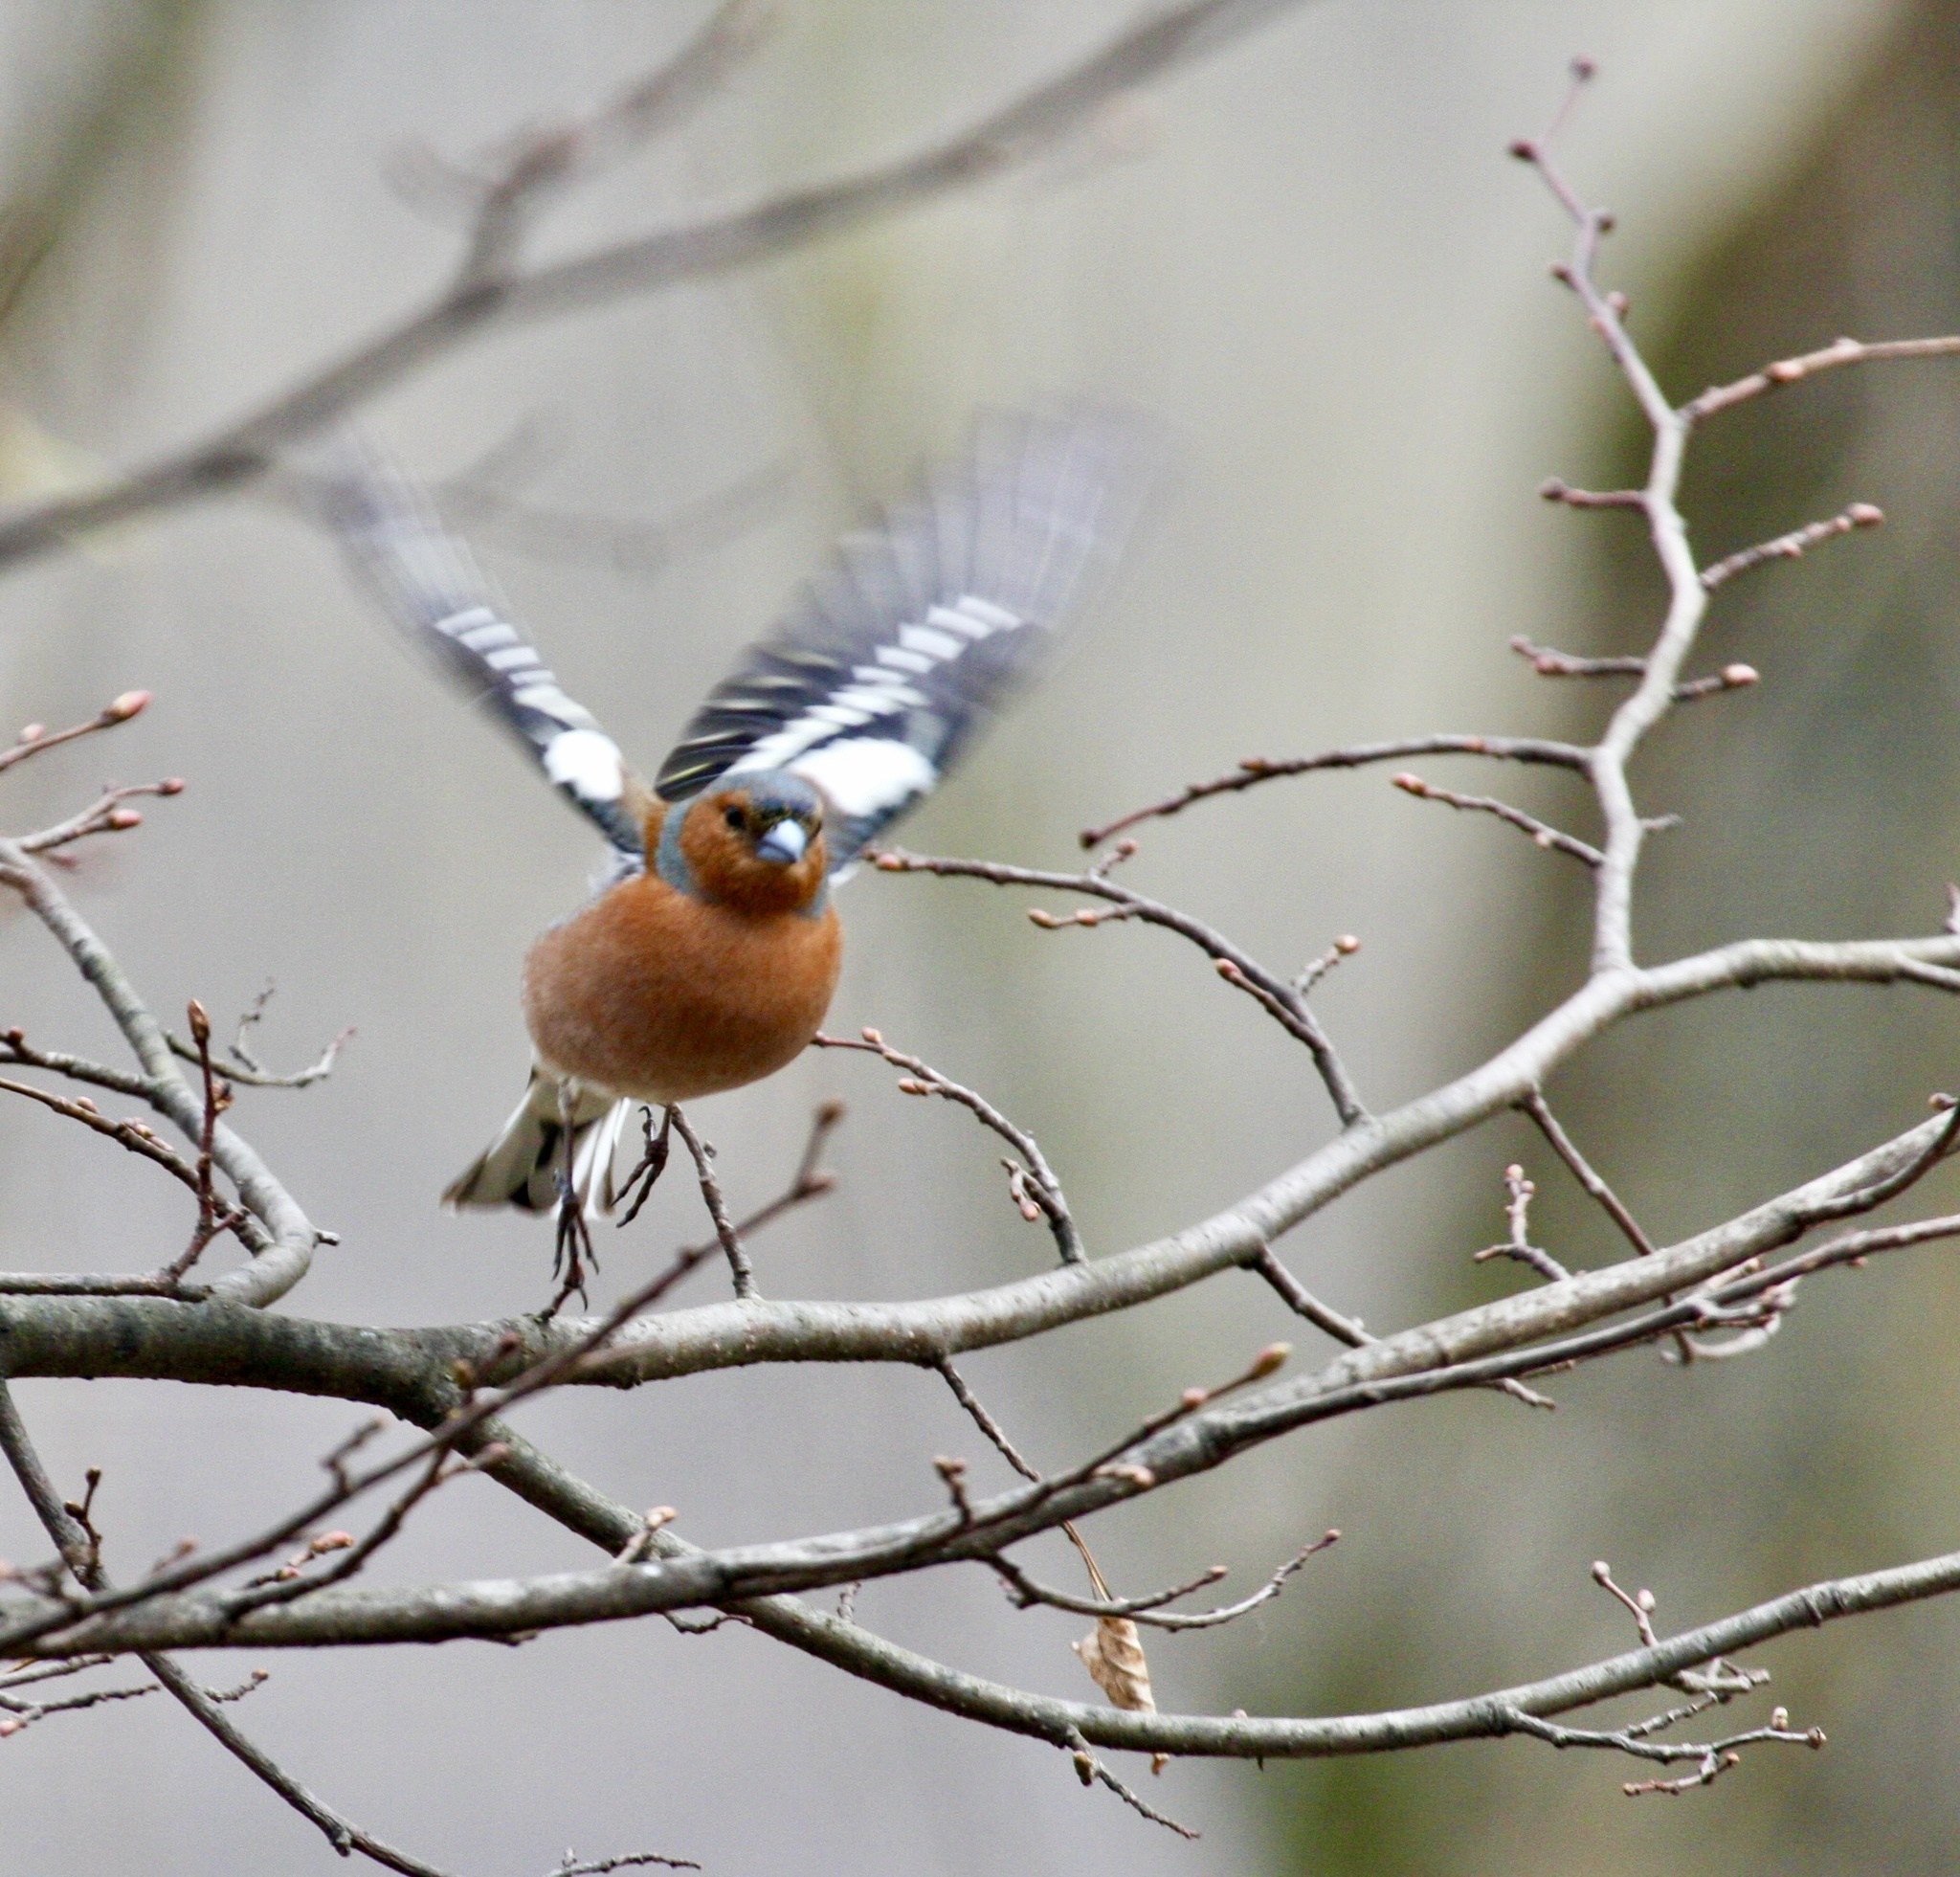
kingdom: Animalia
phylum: Chordata
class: Aves
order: Passeriformes
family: Fringillidae
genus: Fringilla
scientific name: Fringilla coelebs
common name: Common chaffinch
